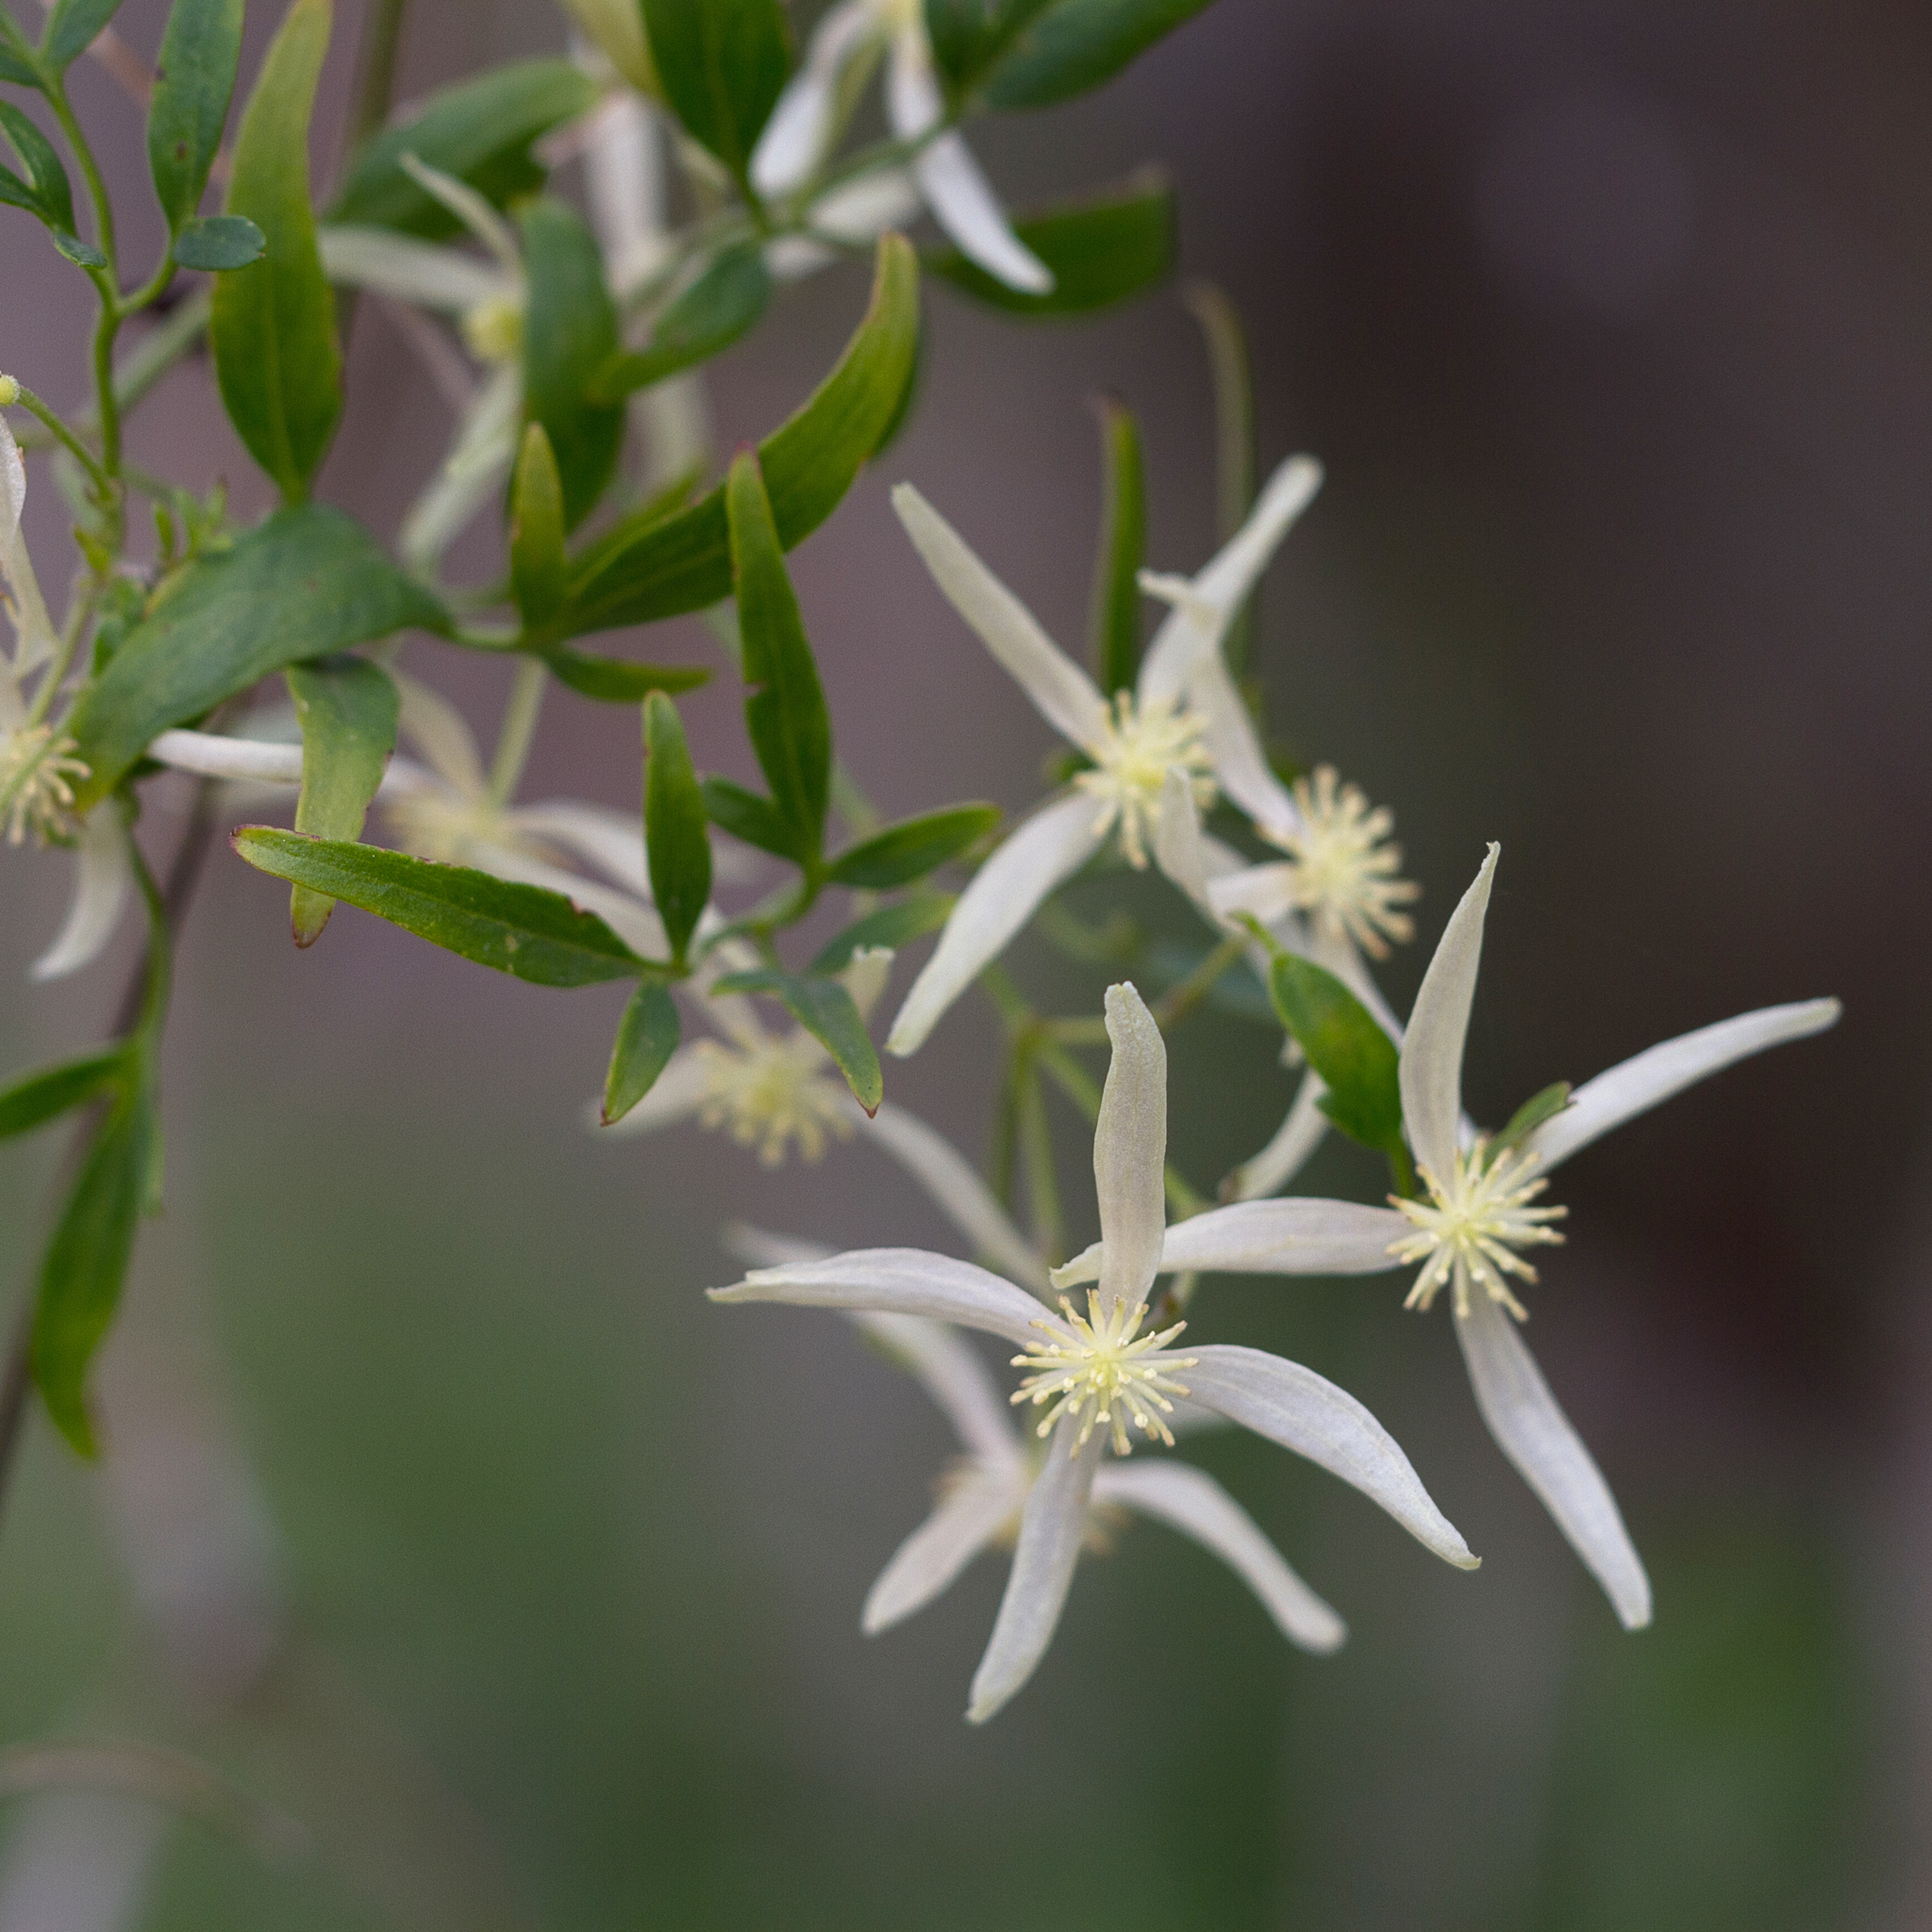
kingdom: Plantae
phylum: Tracheophyta
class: Magnoliopsida
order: Ranunculales
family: Ranunculaceae
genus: Clematis
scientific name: Clematis microphylla
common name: Headachevine
